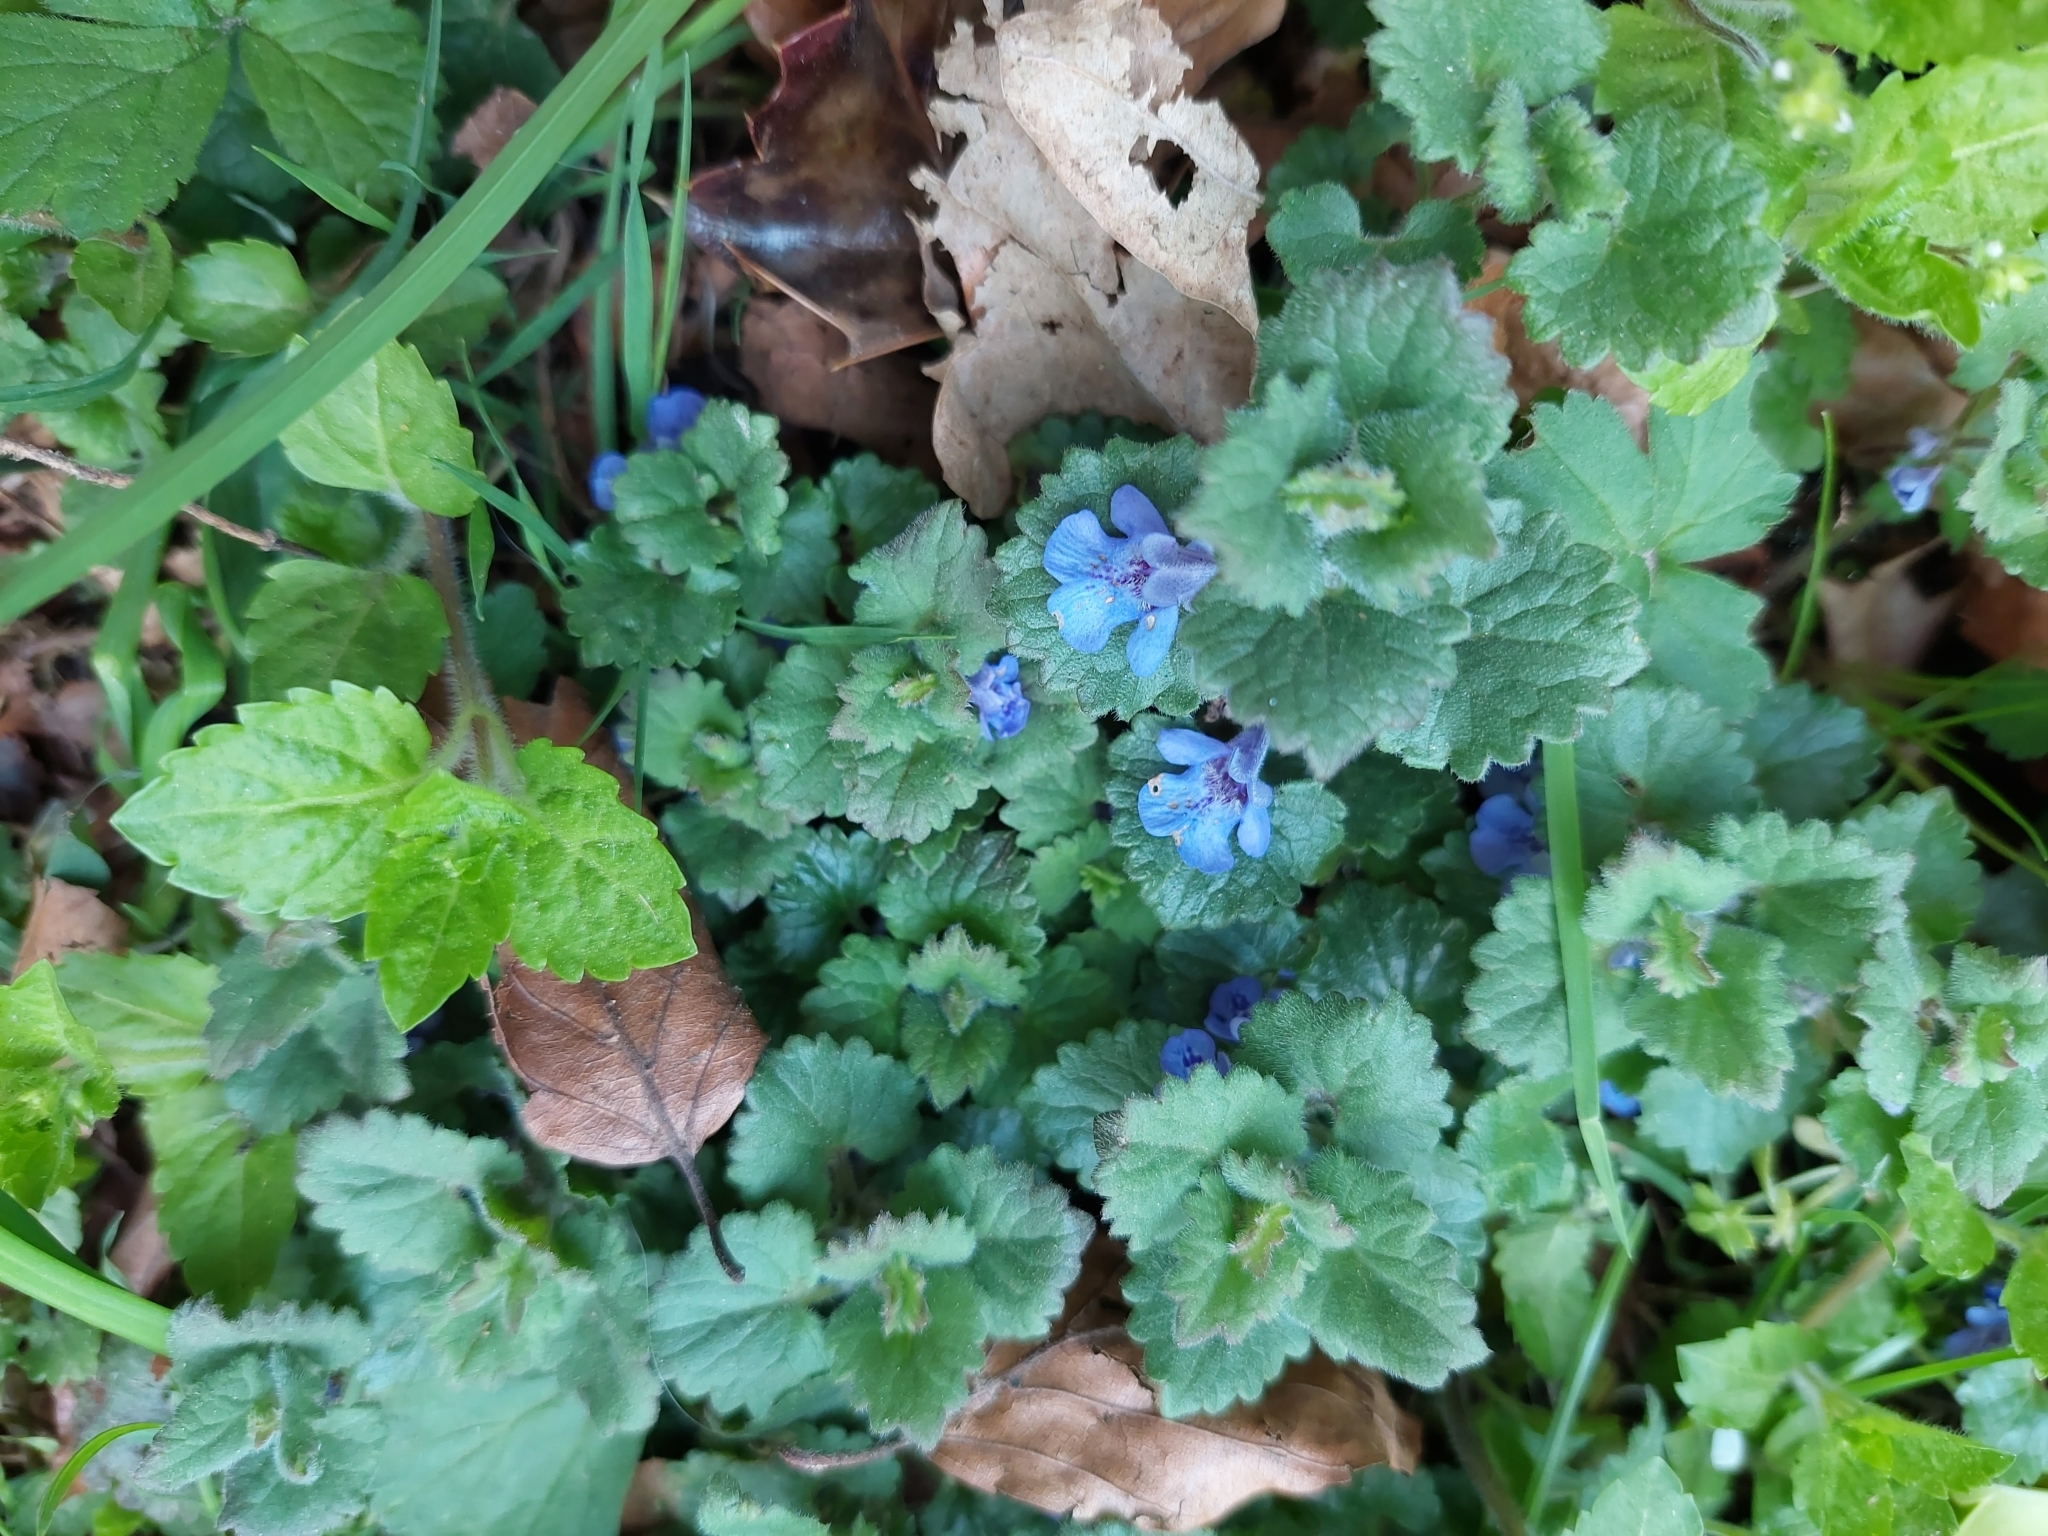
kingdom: Plantae
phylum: Tracheophyta
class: Magnoliopsida
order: Lamiales
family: Lamiaceae
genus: Glechoma
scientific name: Glechoma hederacea
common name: Ground ivy
